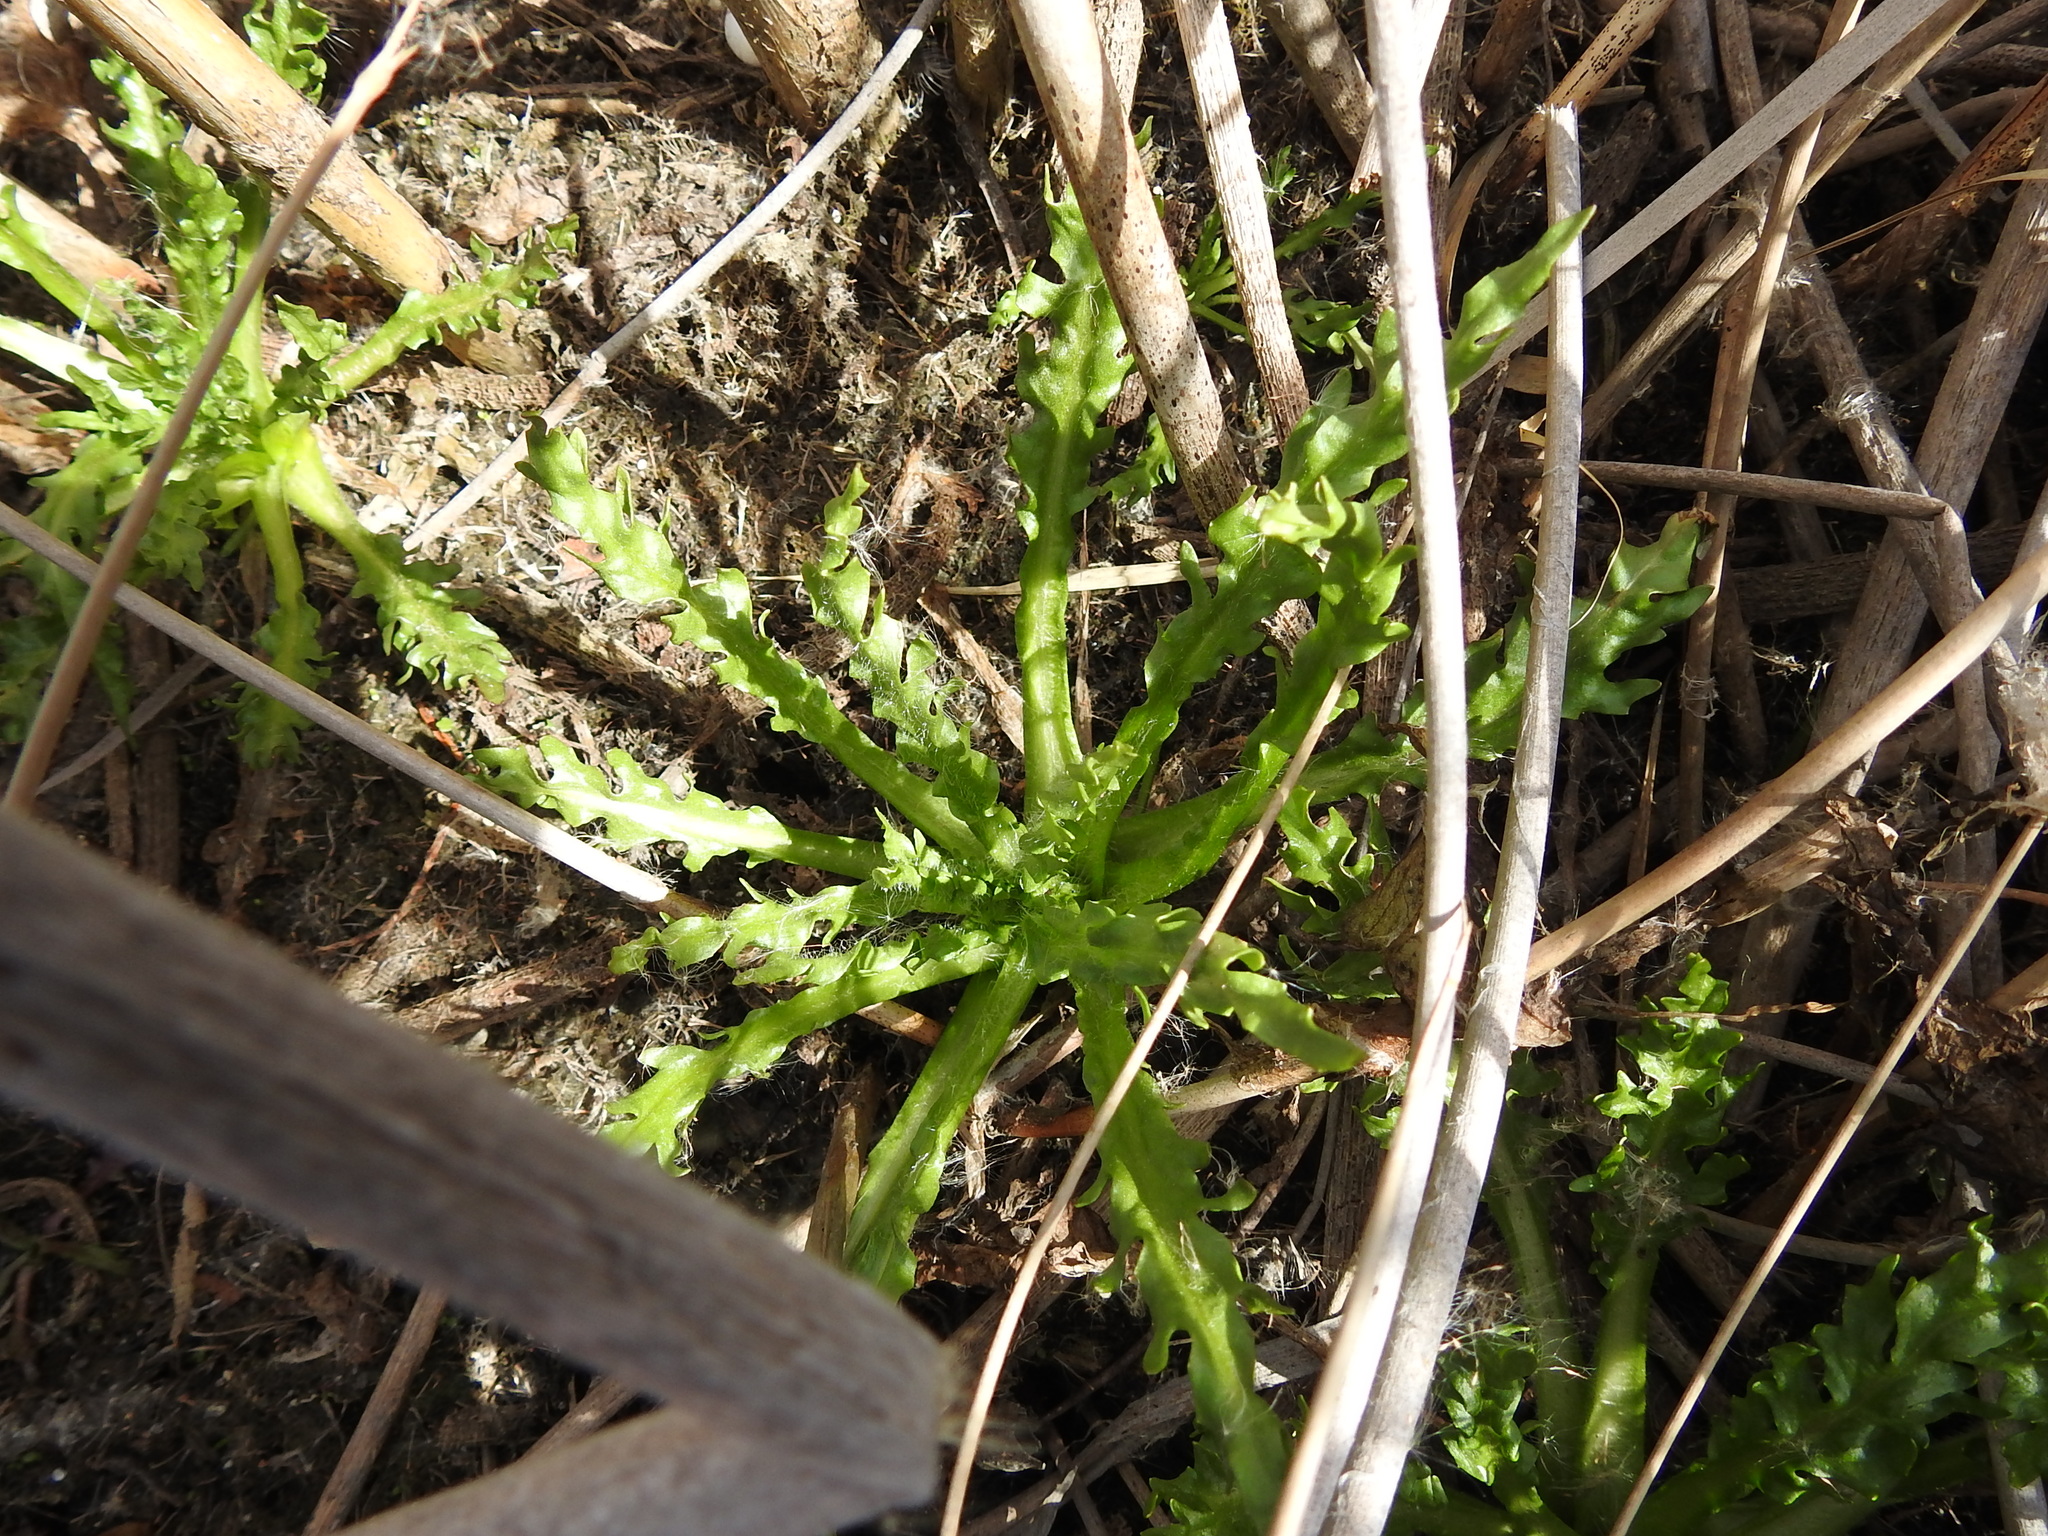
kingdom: Plantae
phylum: Tracheophyta
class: Magnoliopsida
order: Asterales
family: Asteraceae
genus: Tephroseris
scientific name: Tephroseris palustris
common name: Marsh fleawort
